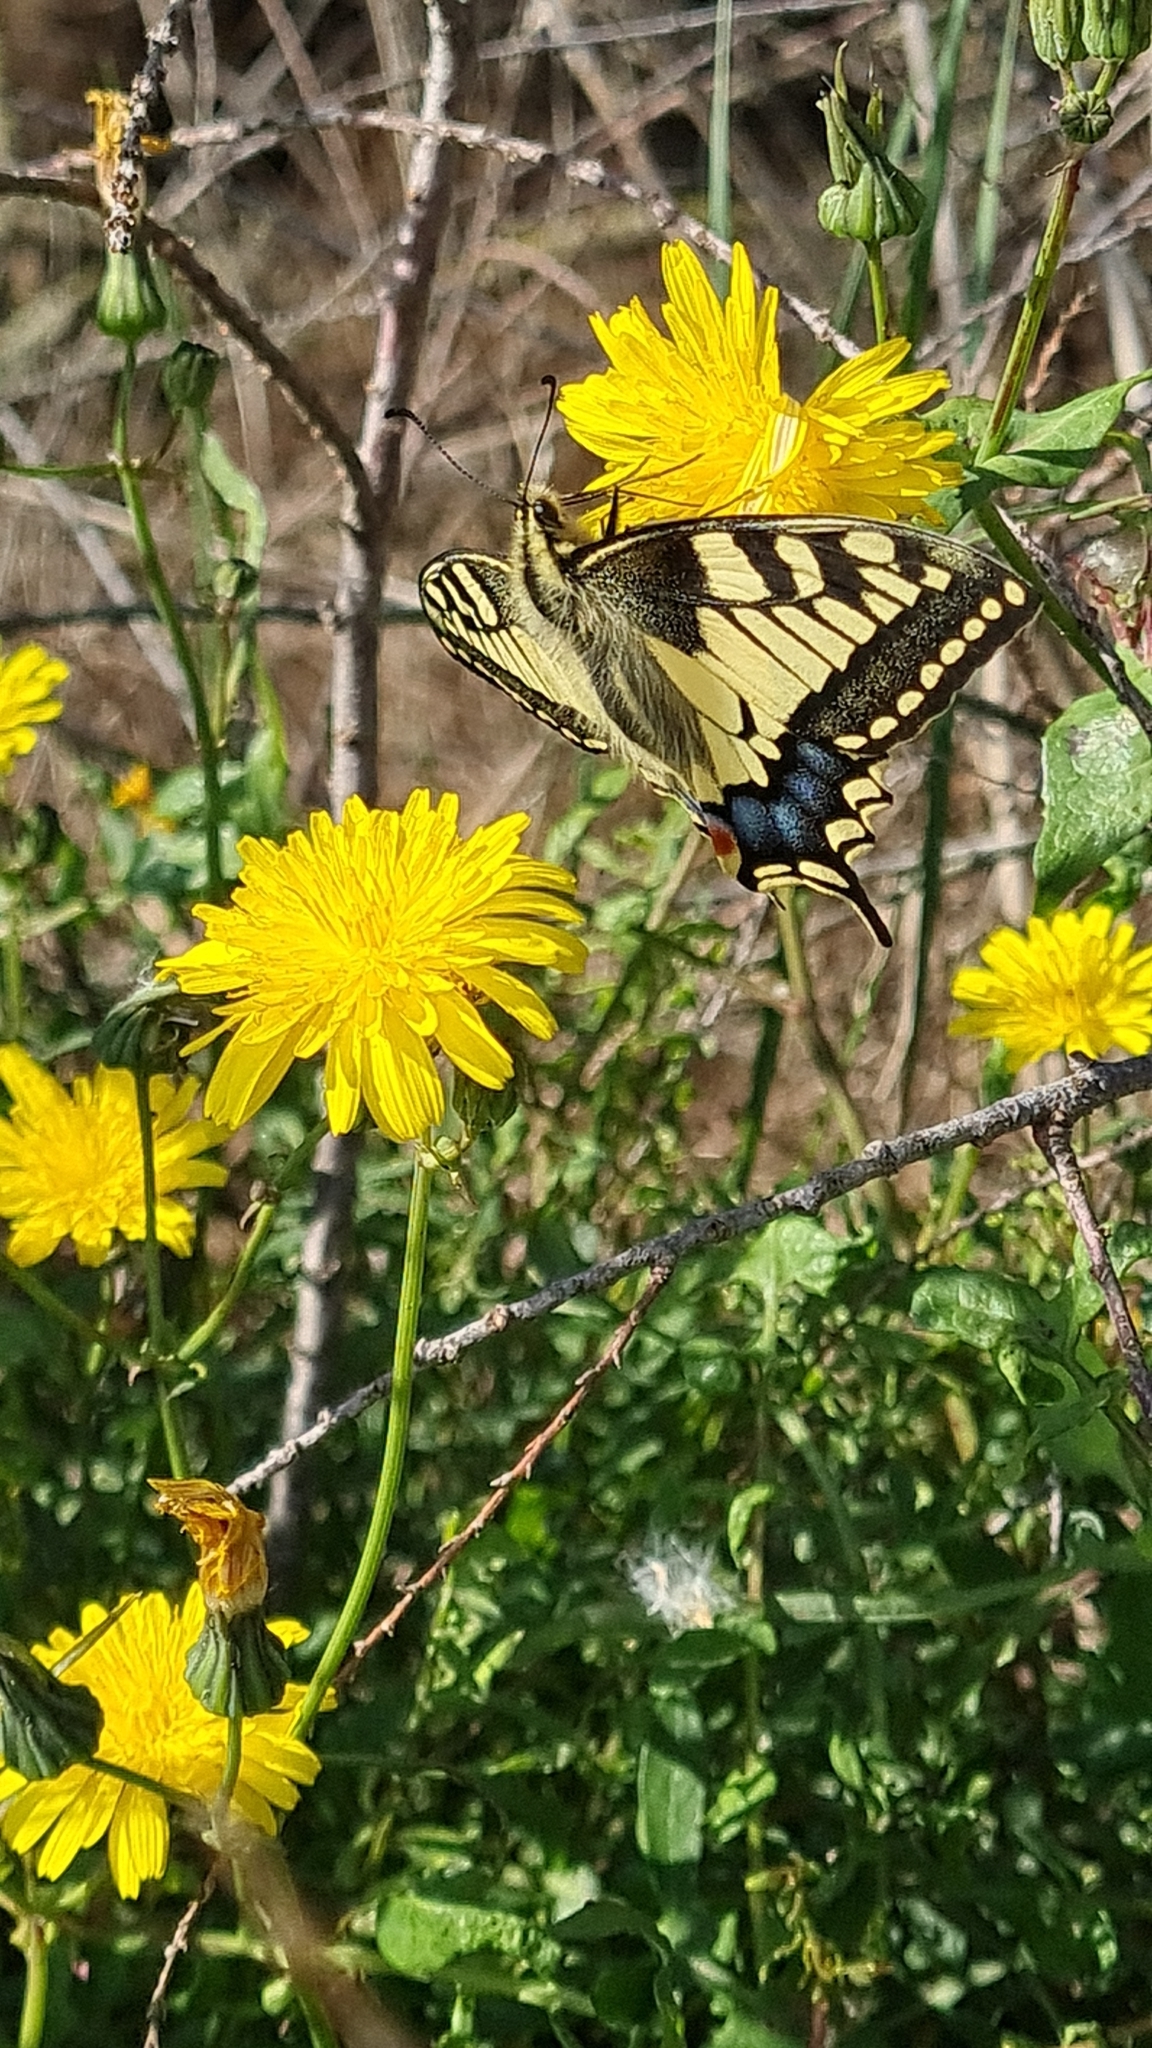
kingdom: Animalia
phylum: Arthropoda
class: Insecta
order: Lepidoptera
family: Papilionidae
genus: Papilio
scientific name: Papilio machaon
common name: Swallowtail
